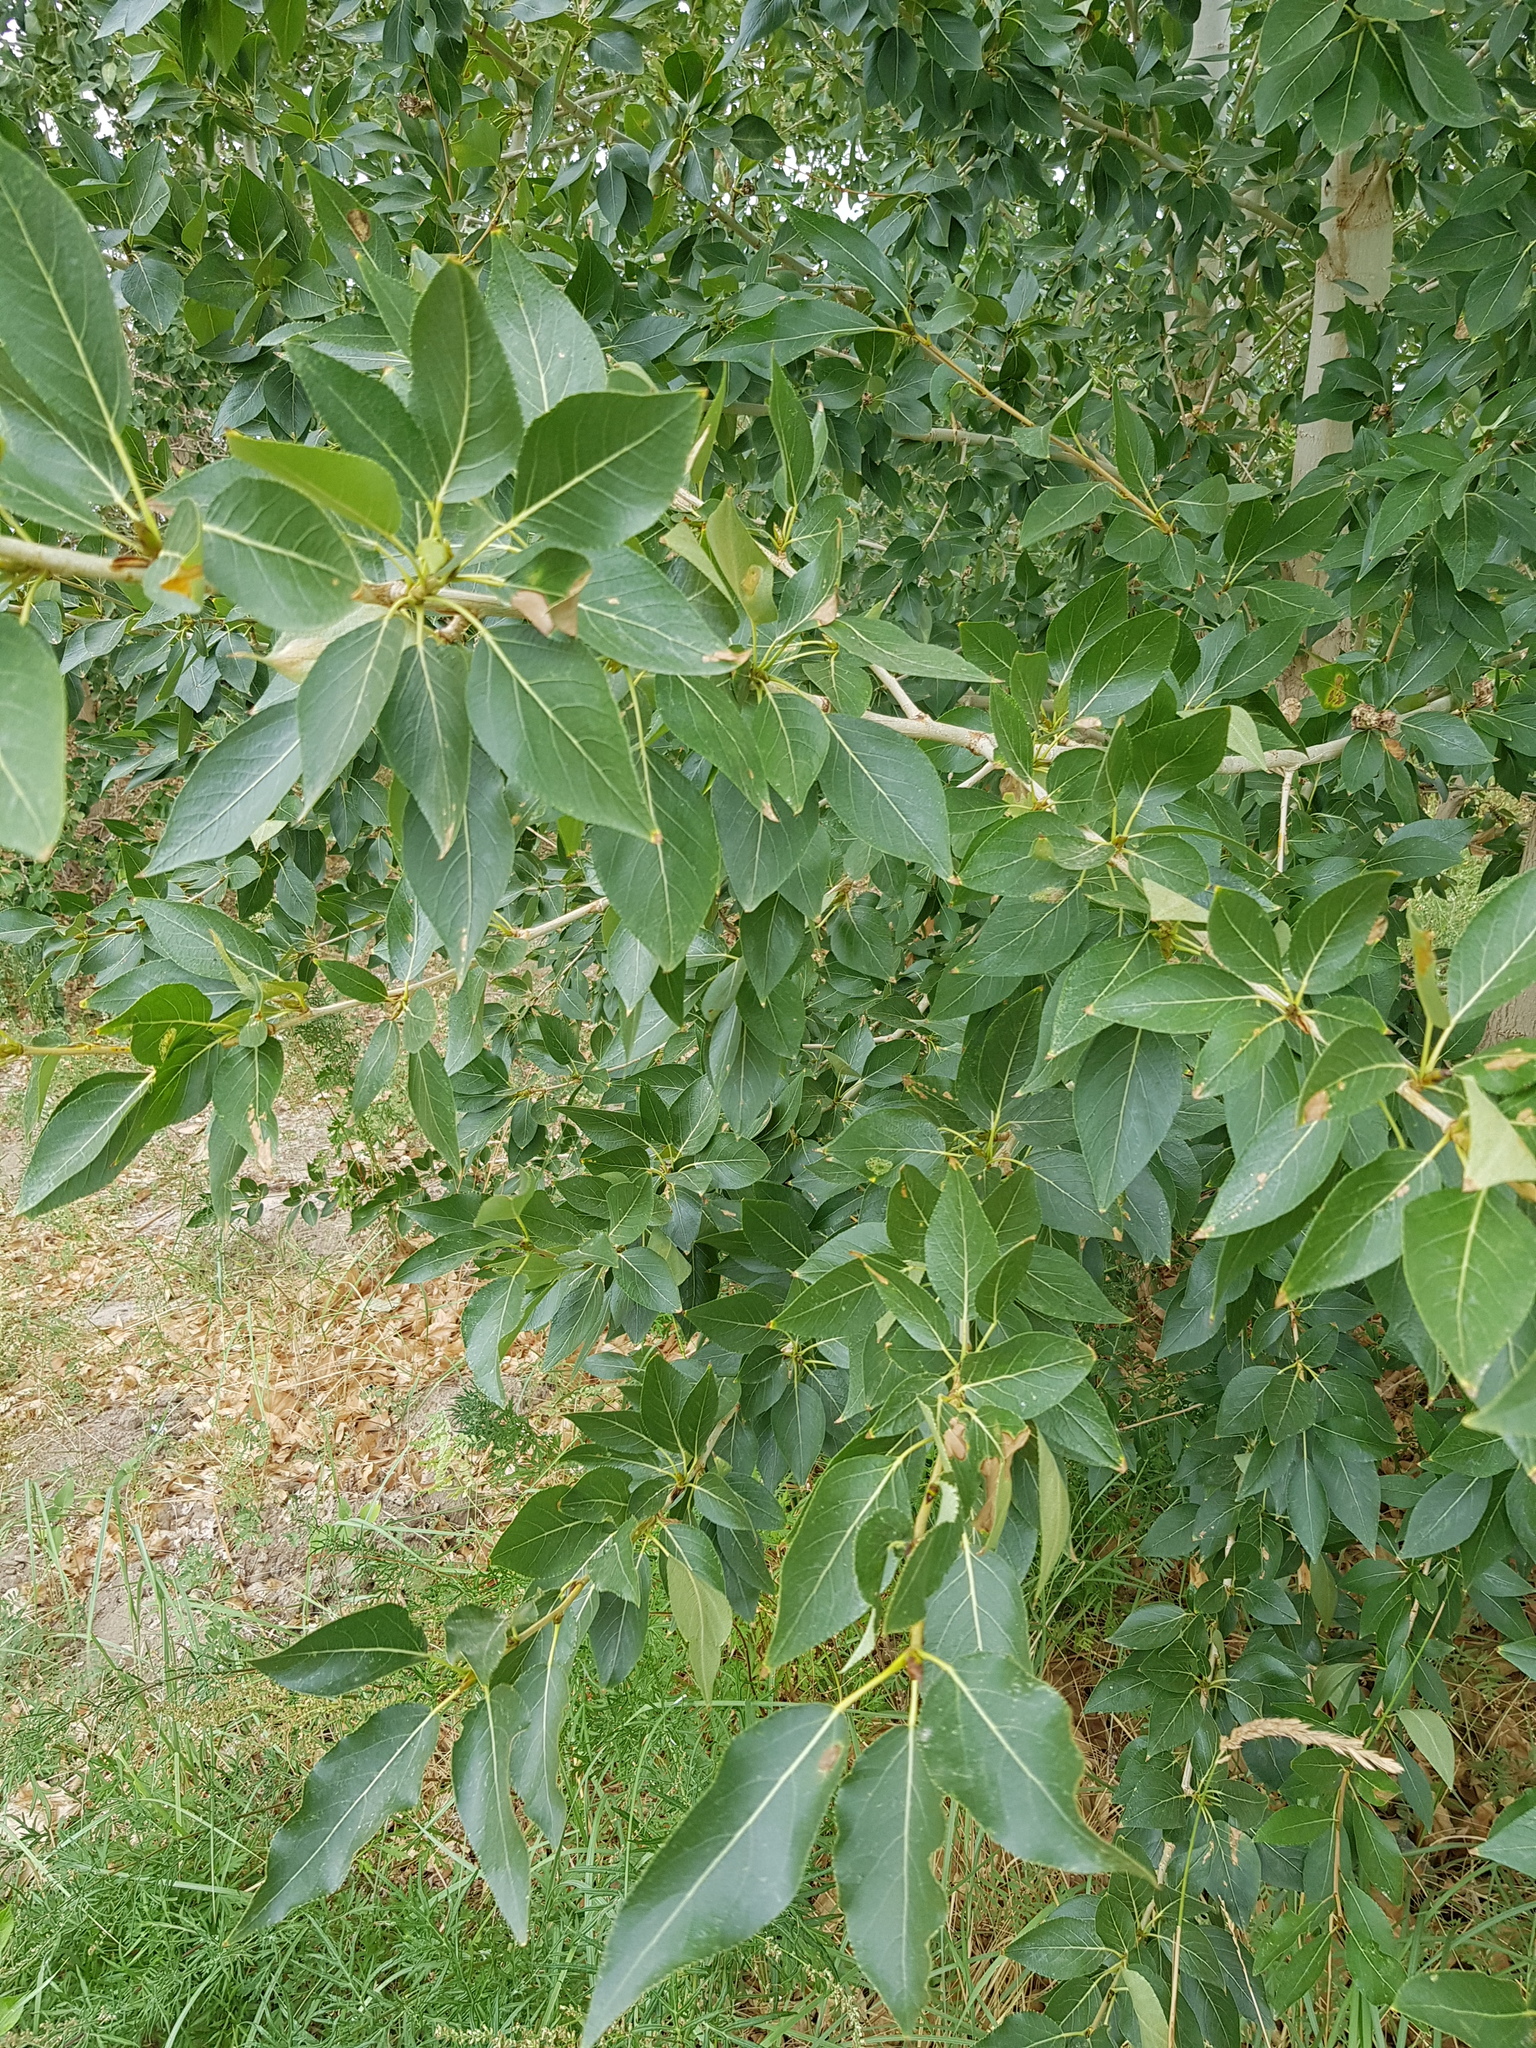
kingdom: Plantae
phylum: Tracheophyta
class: Magnoliopsida
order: Malpighiales
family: Salicaceae
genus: Populus
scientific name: Populus laurifolia
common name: Laurel-leaf poplar
